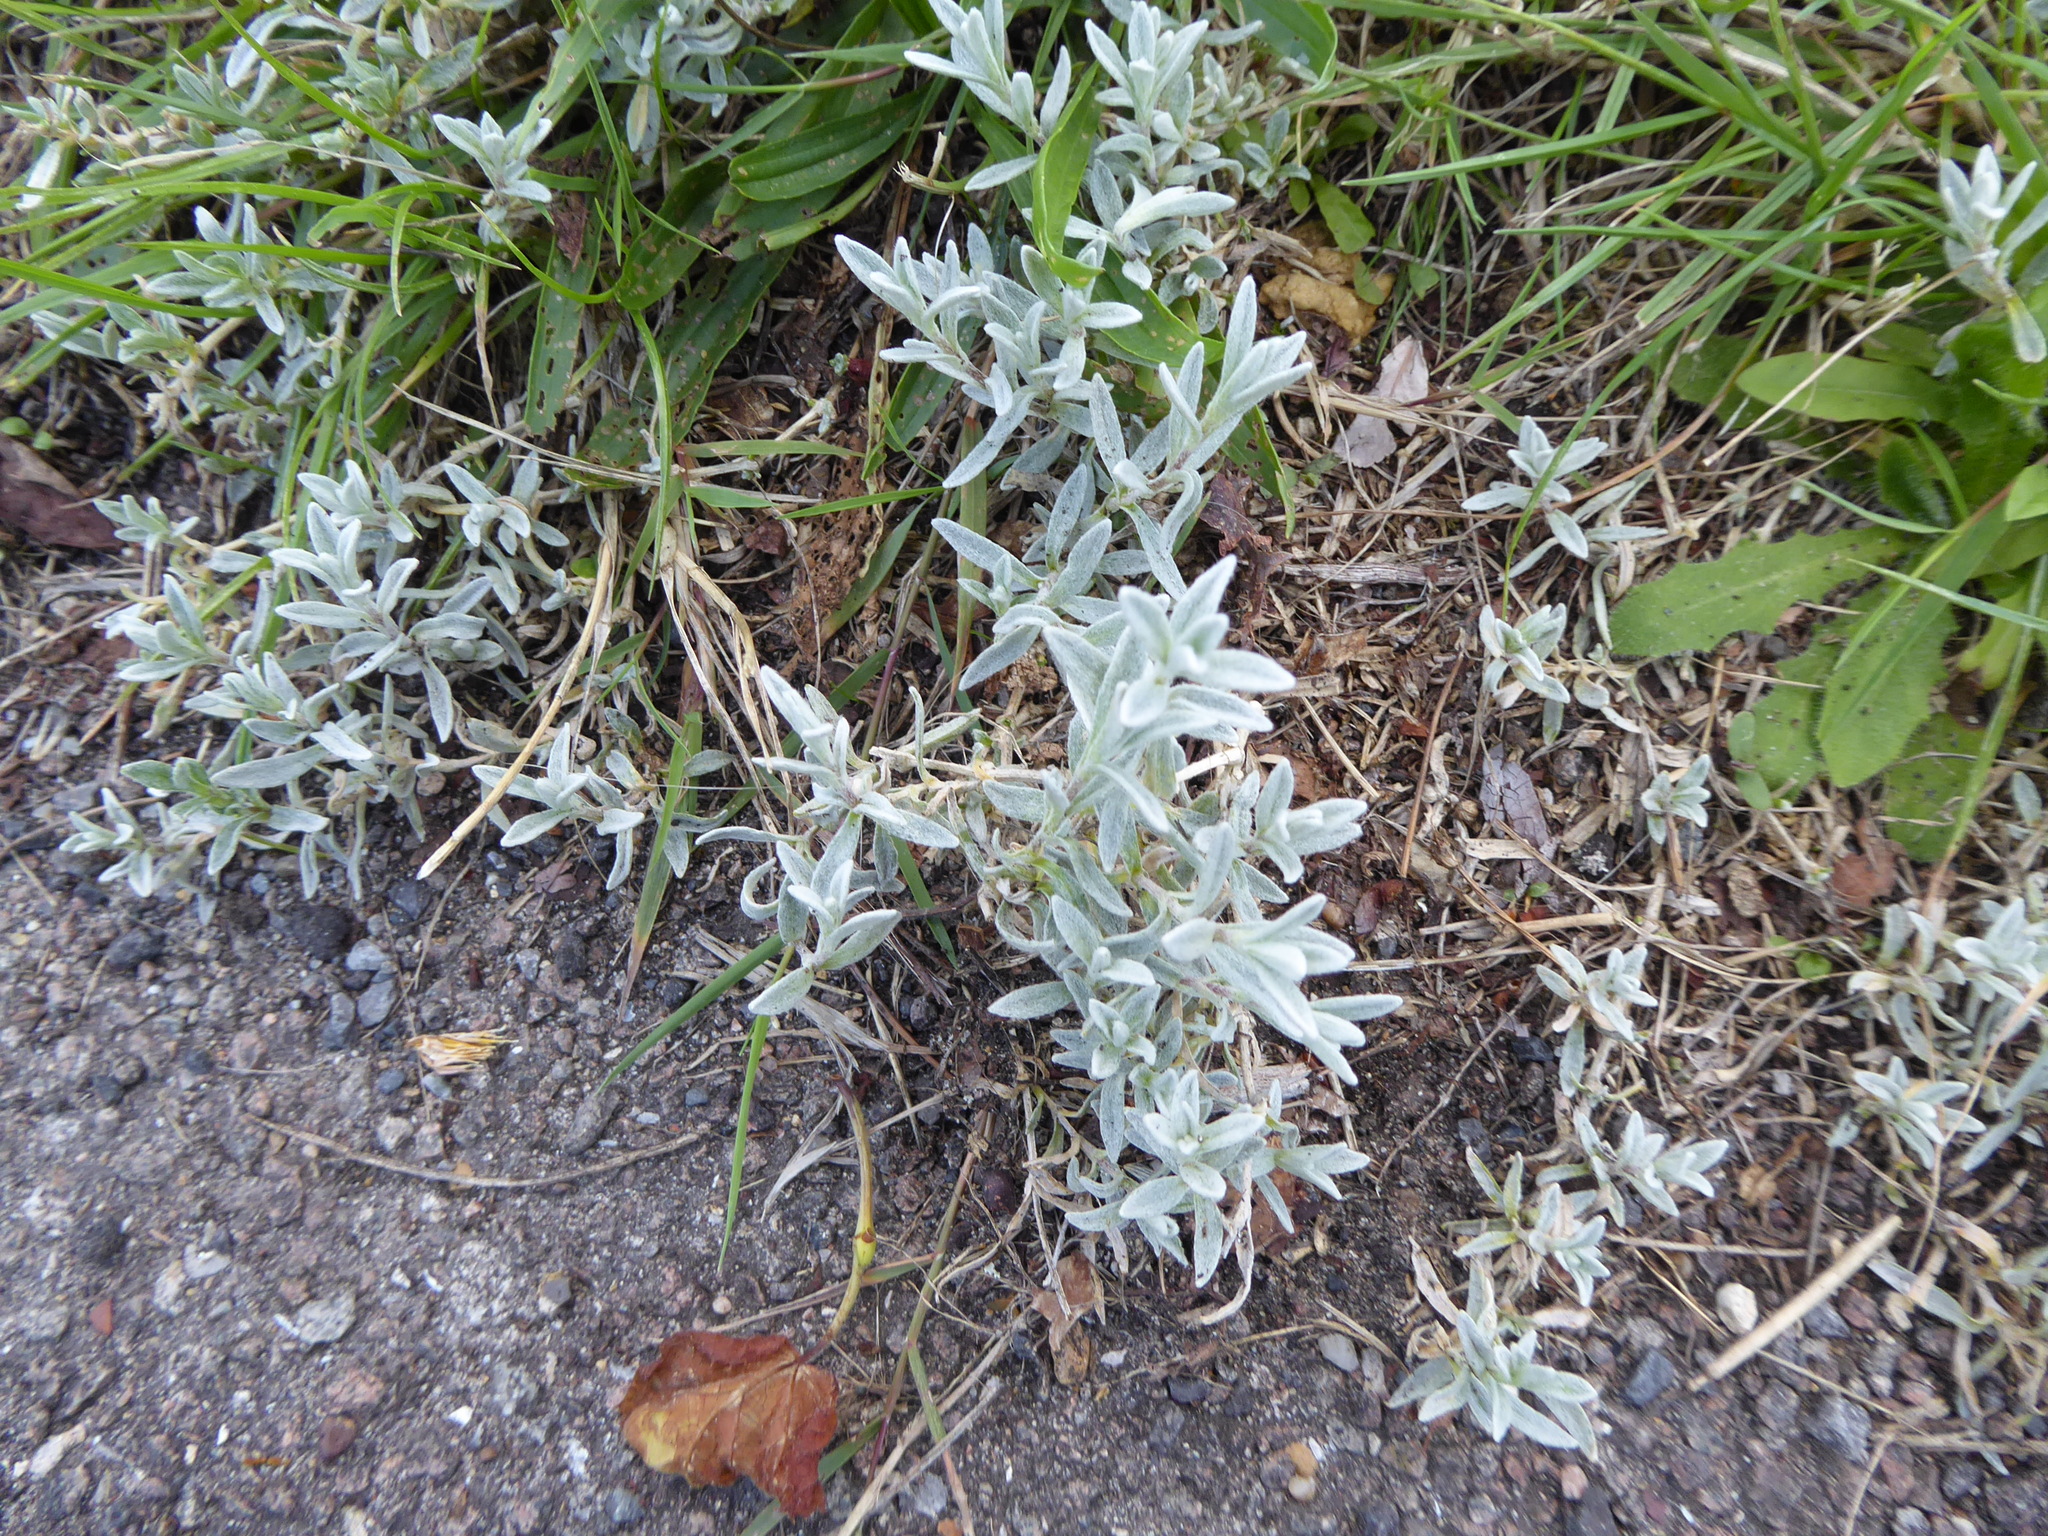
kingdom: Plantae
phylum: Tracheophyta
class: Magnoliopsida
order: Caryophyllales
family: Caryophyllaceae
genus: Cerastium
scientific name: Cerastium tomentosum
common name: Snow-in-summer
